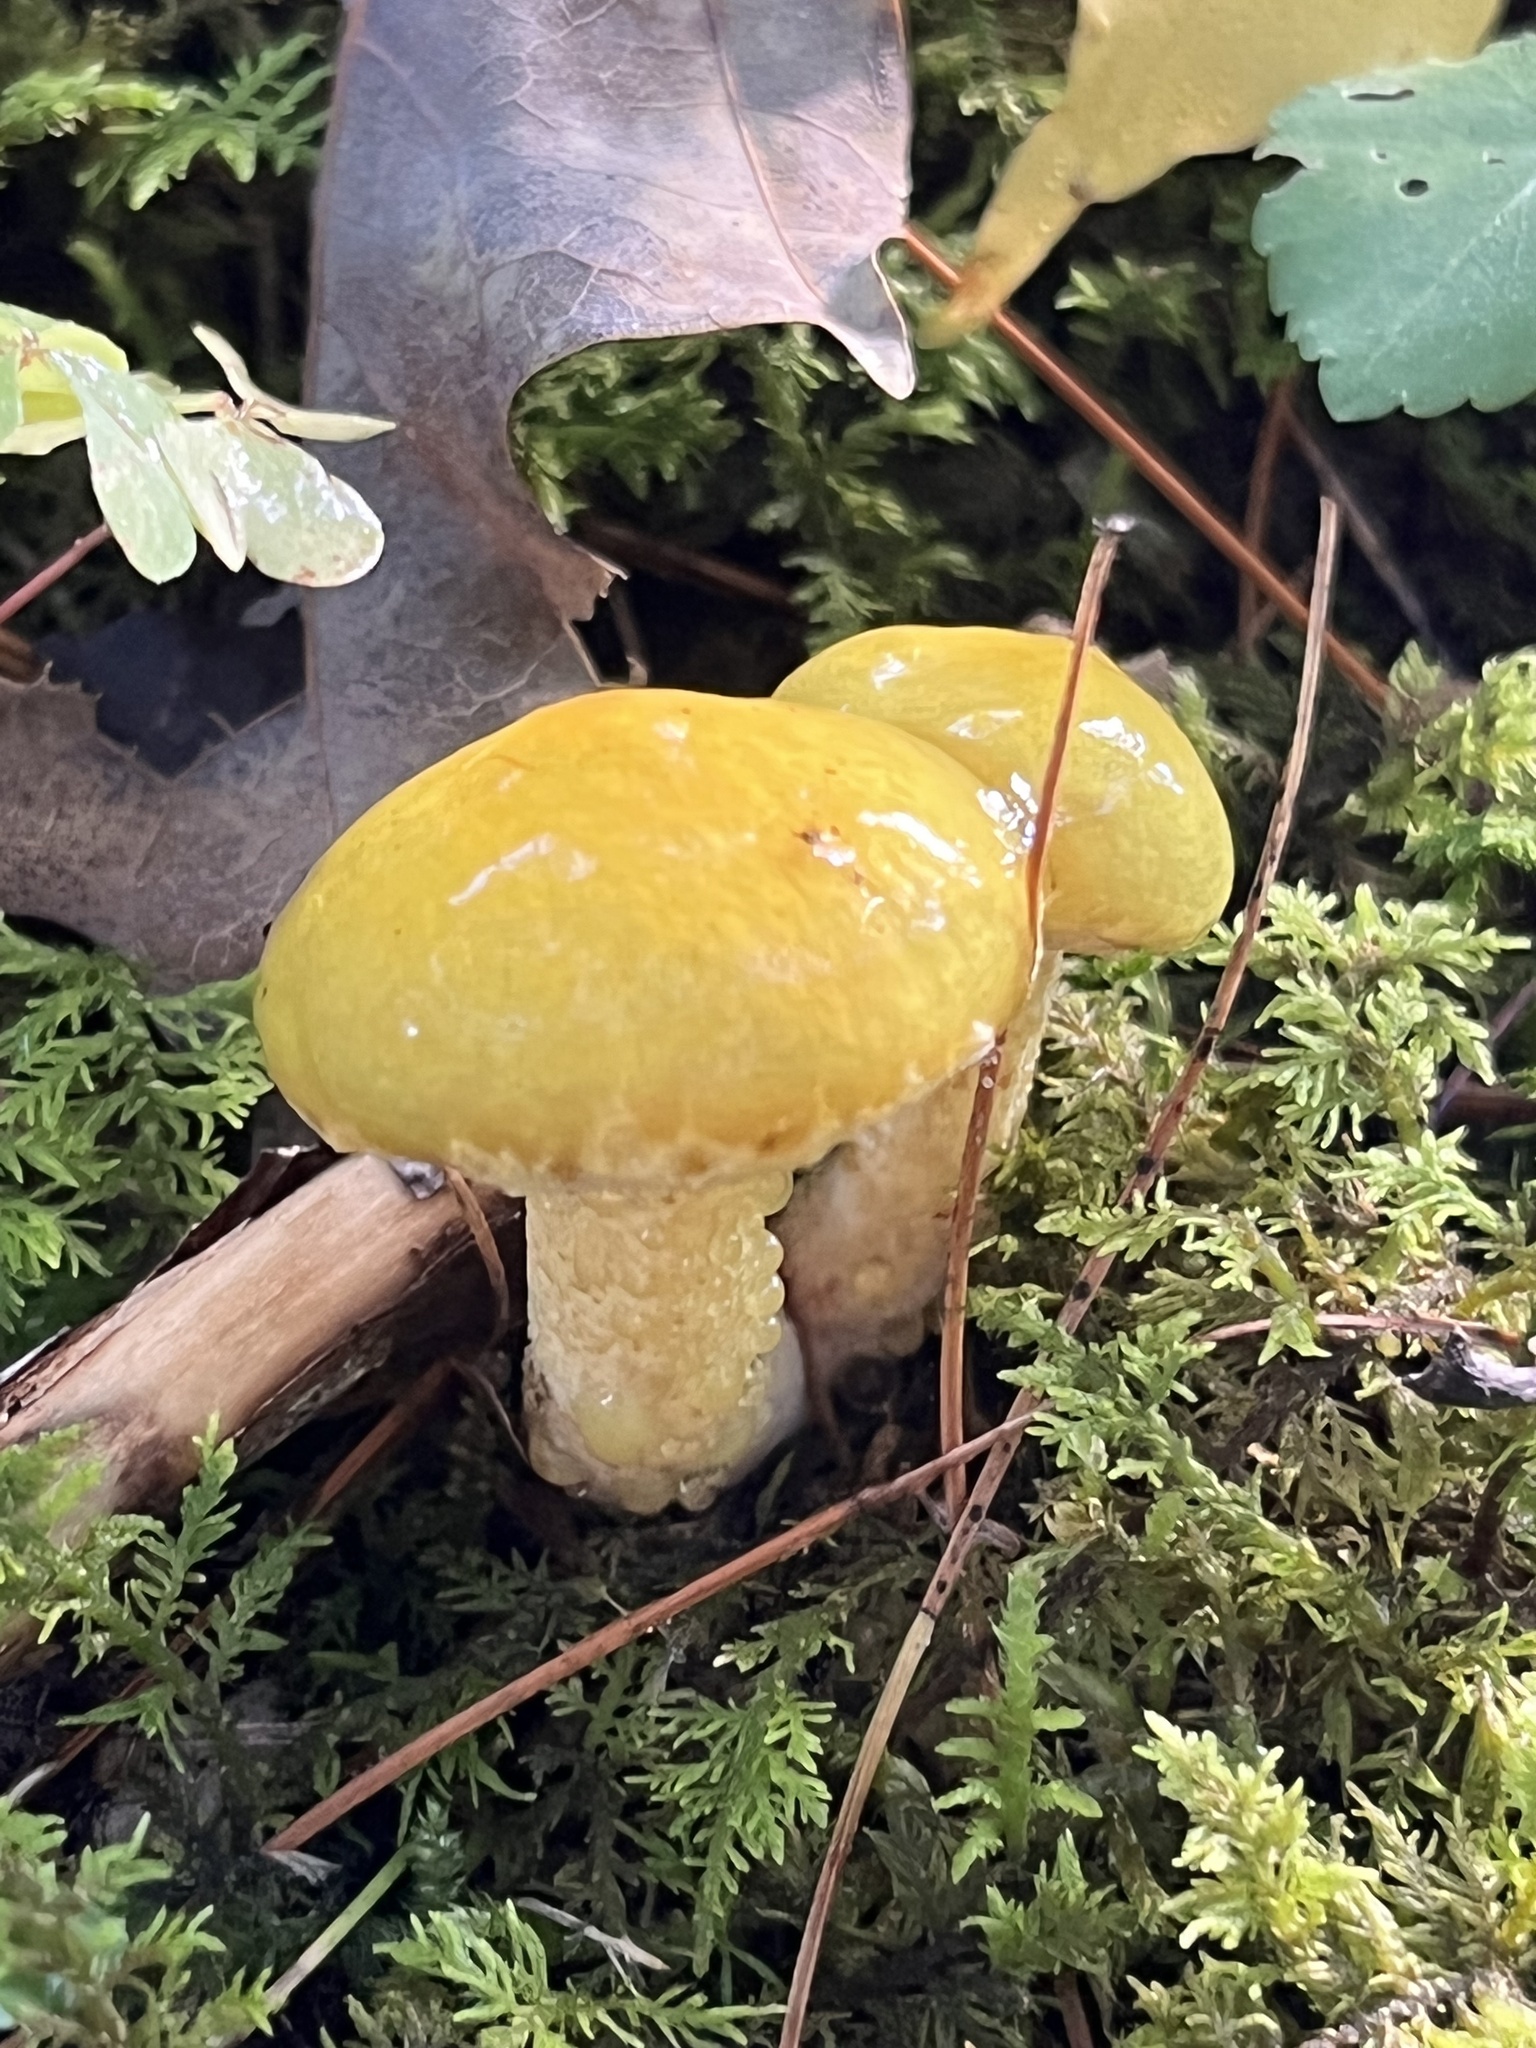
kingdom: Fungi
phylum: Basidiomycota
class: Agaricomycetes
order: Boletales
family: Suillaceae
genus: Suillus
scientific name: Suillus americanus
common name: Chicken fat mushroom
